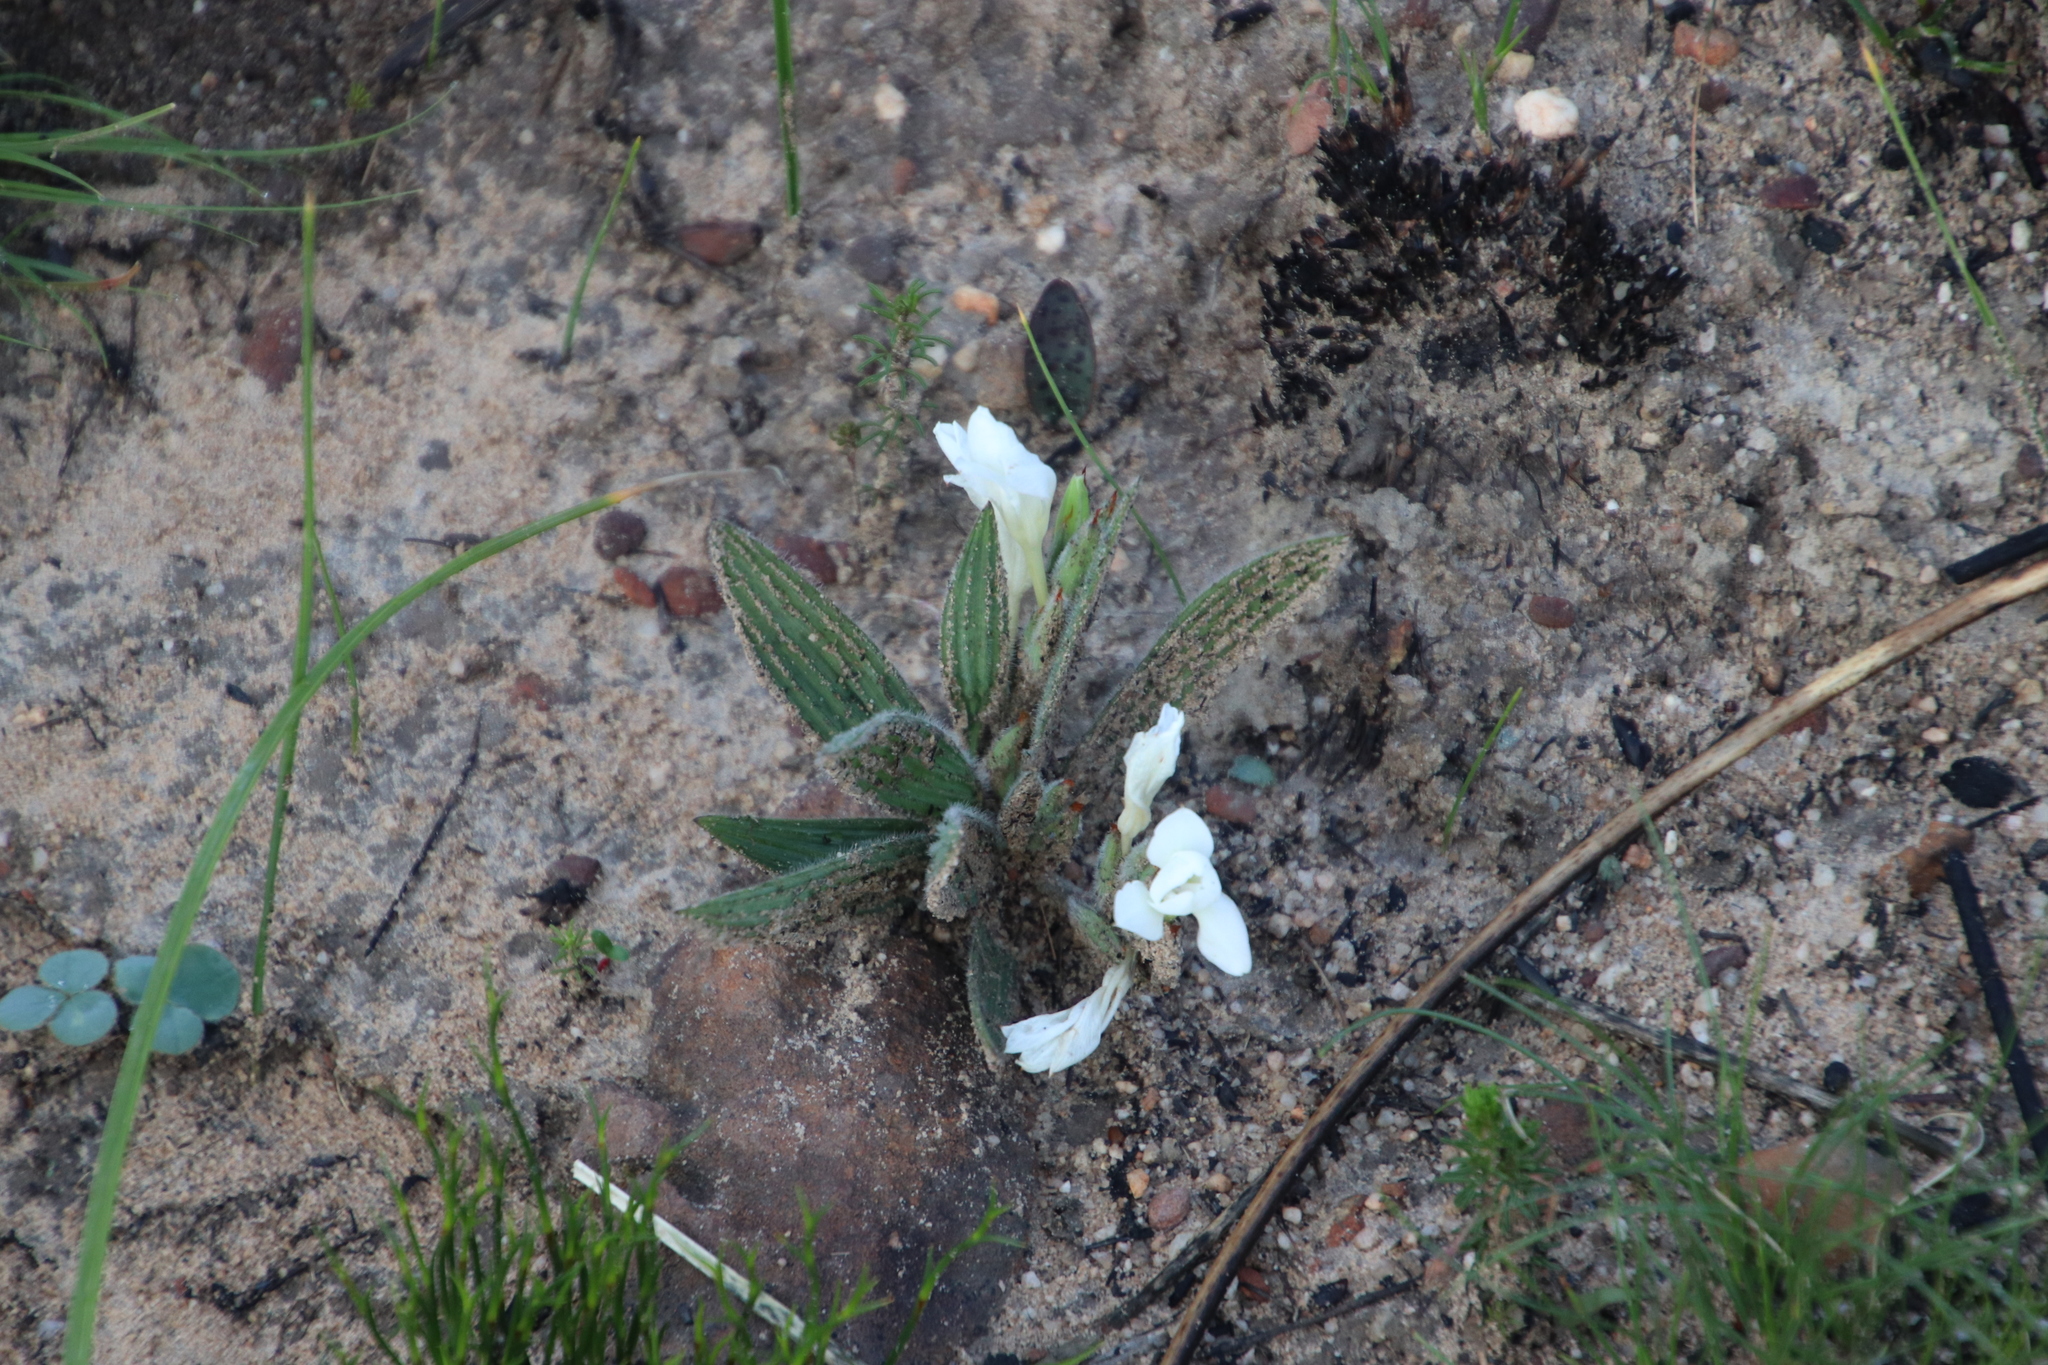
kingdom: Plantae
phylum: Tracheophyta
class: Liliopsida
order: Asparagales
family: Iridaceae
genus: Babiana
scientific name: Babiana villosula
